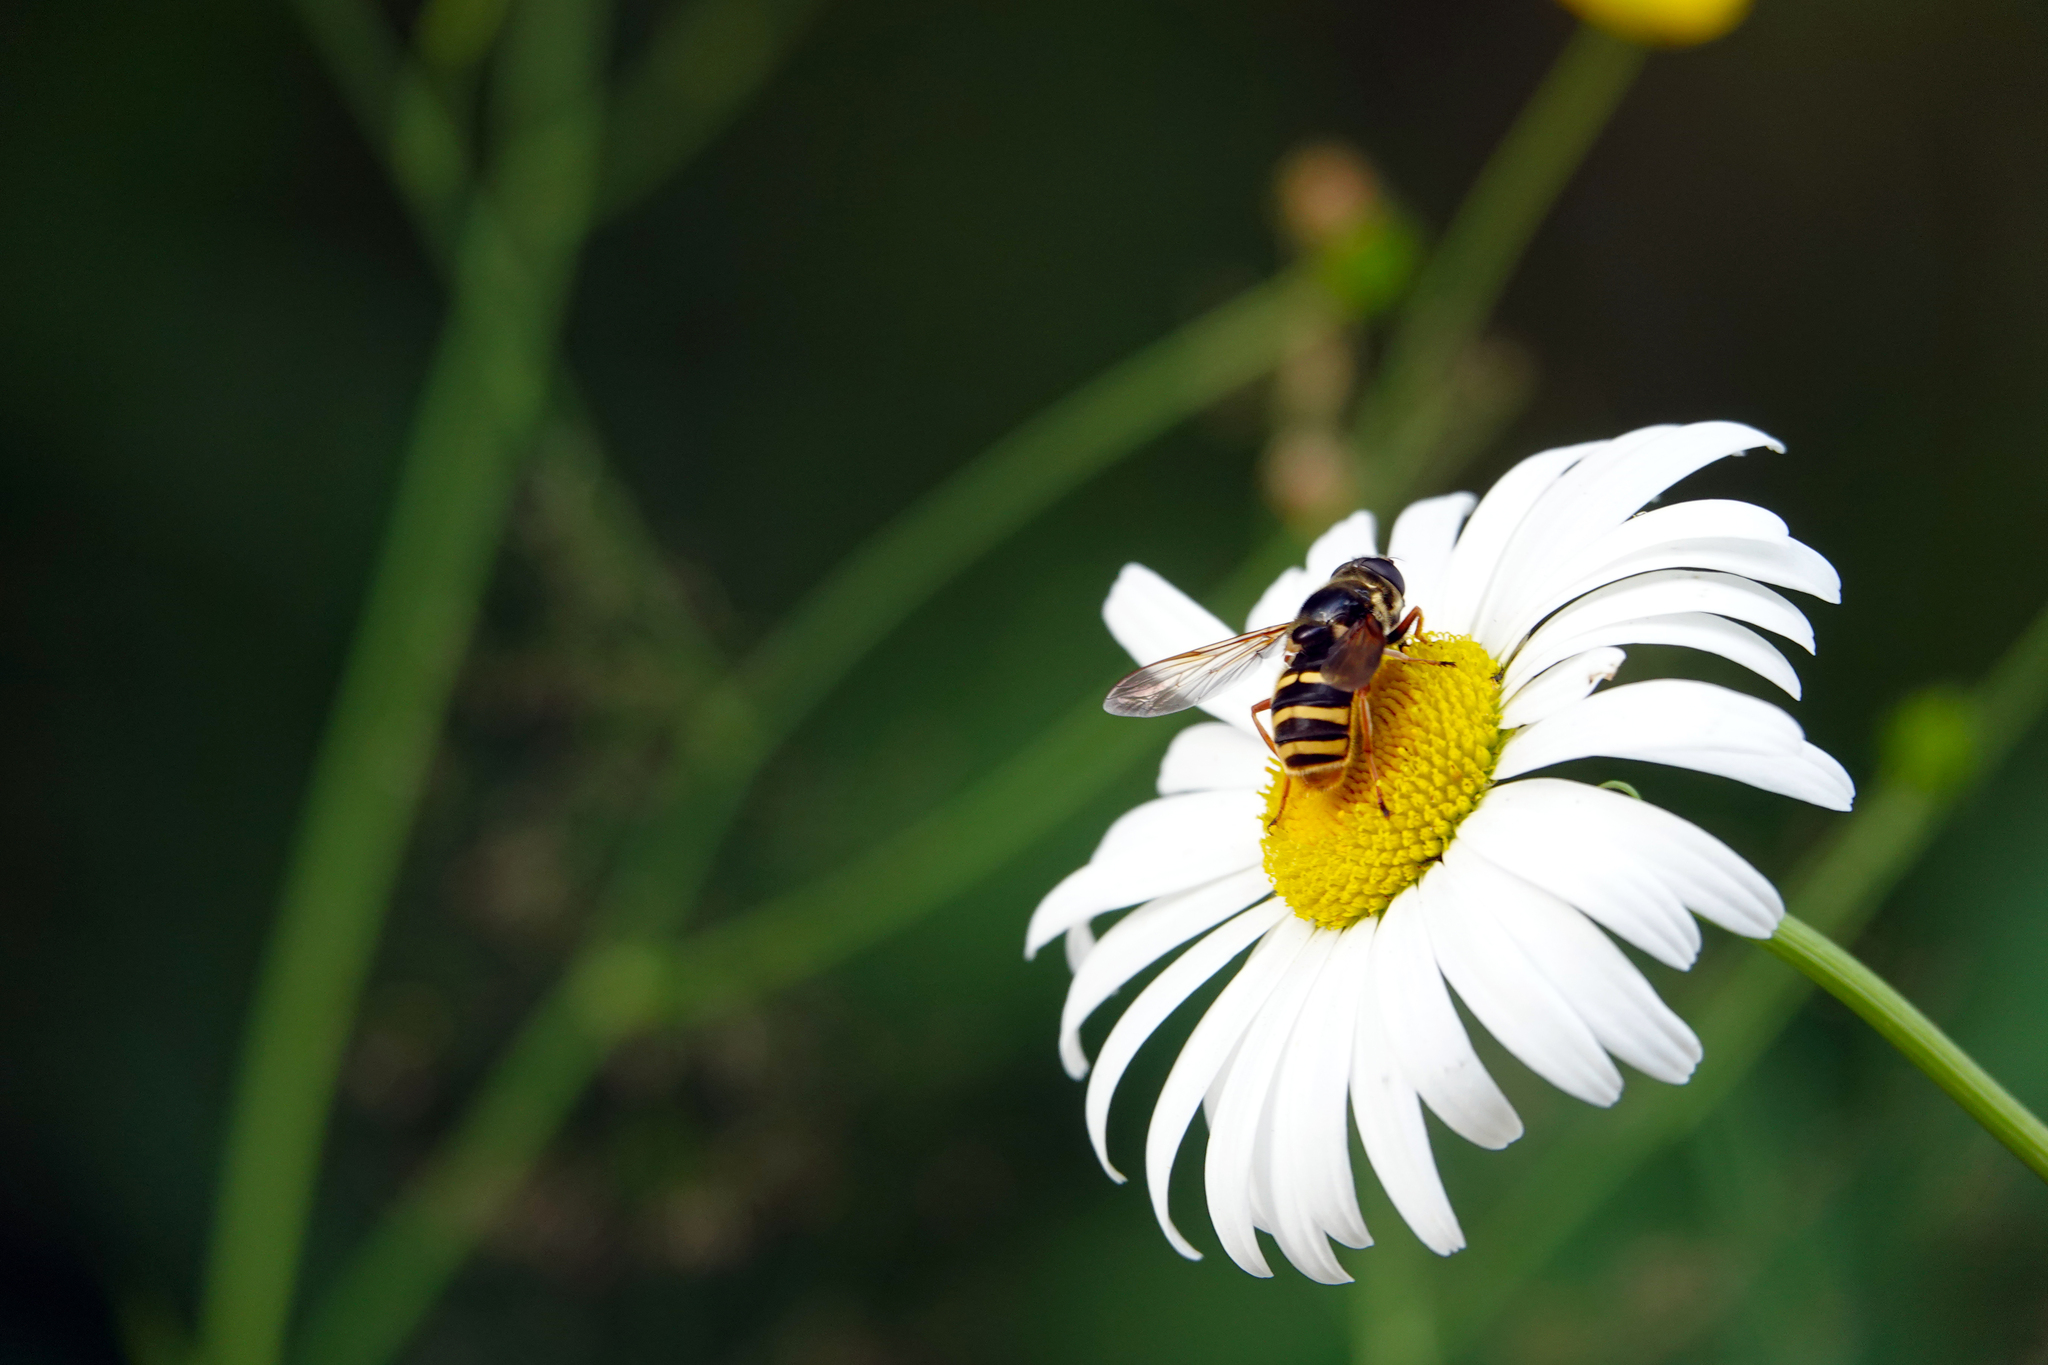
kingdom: Animalia
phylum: Arthropoda
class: Insecta
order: Diptera
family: Syrphidae
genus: Sericomyia
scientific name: Sericomyia silentis
